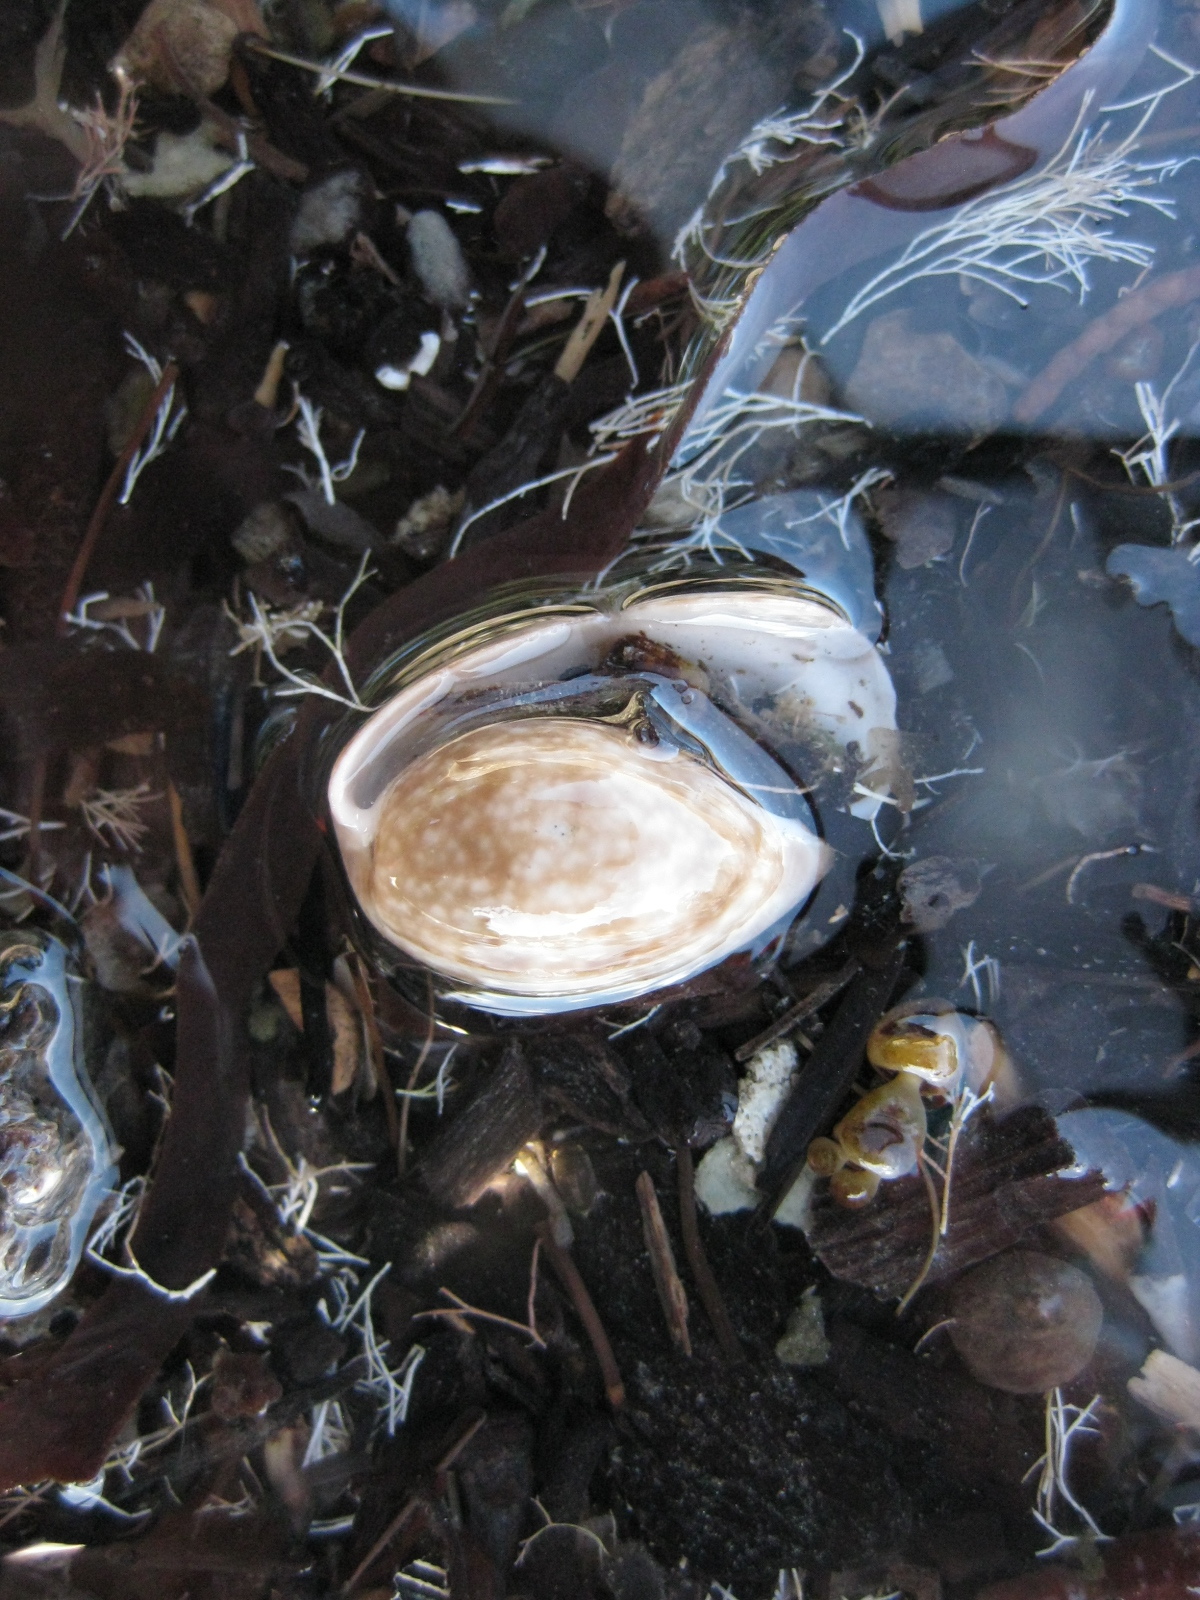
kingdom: Animalia
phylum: Mollusca
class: Gastropoda
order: Cephalaspidea
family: Bullidae
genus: Bulla
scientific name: Bulla quoyii
